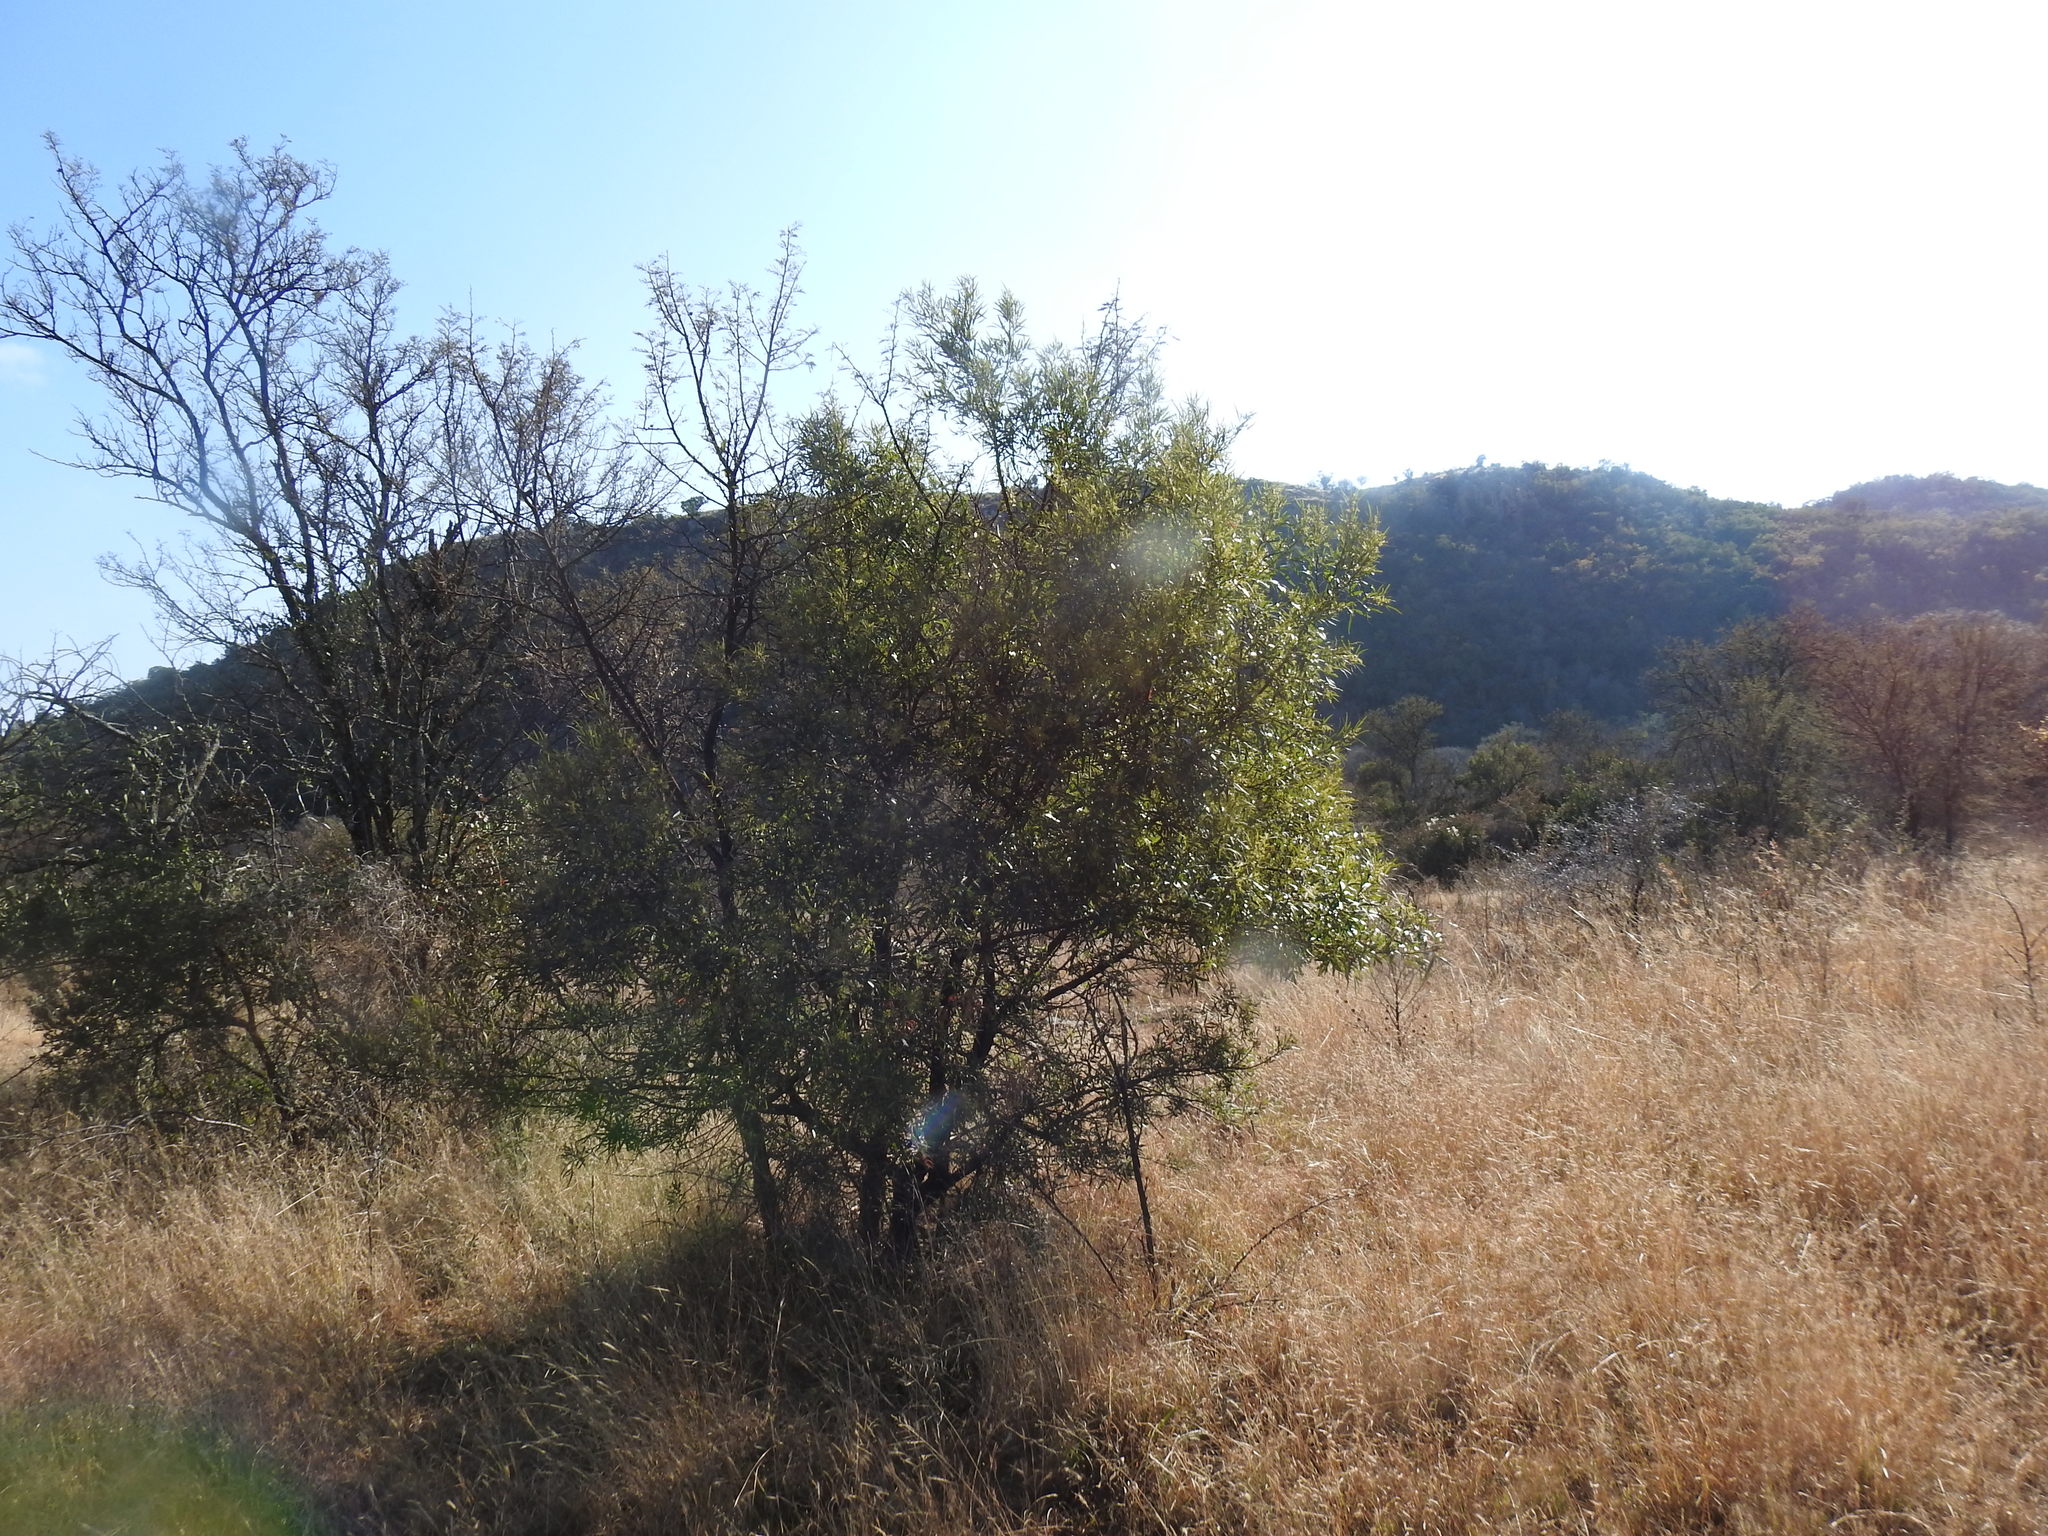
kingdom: Plantae
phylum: Tracheophyta
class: Magnoliopsida
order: Sapindales
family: Anacardiaceae
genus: Searsia
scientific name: Searsia lancea
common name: Cashew
